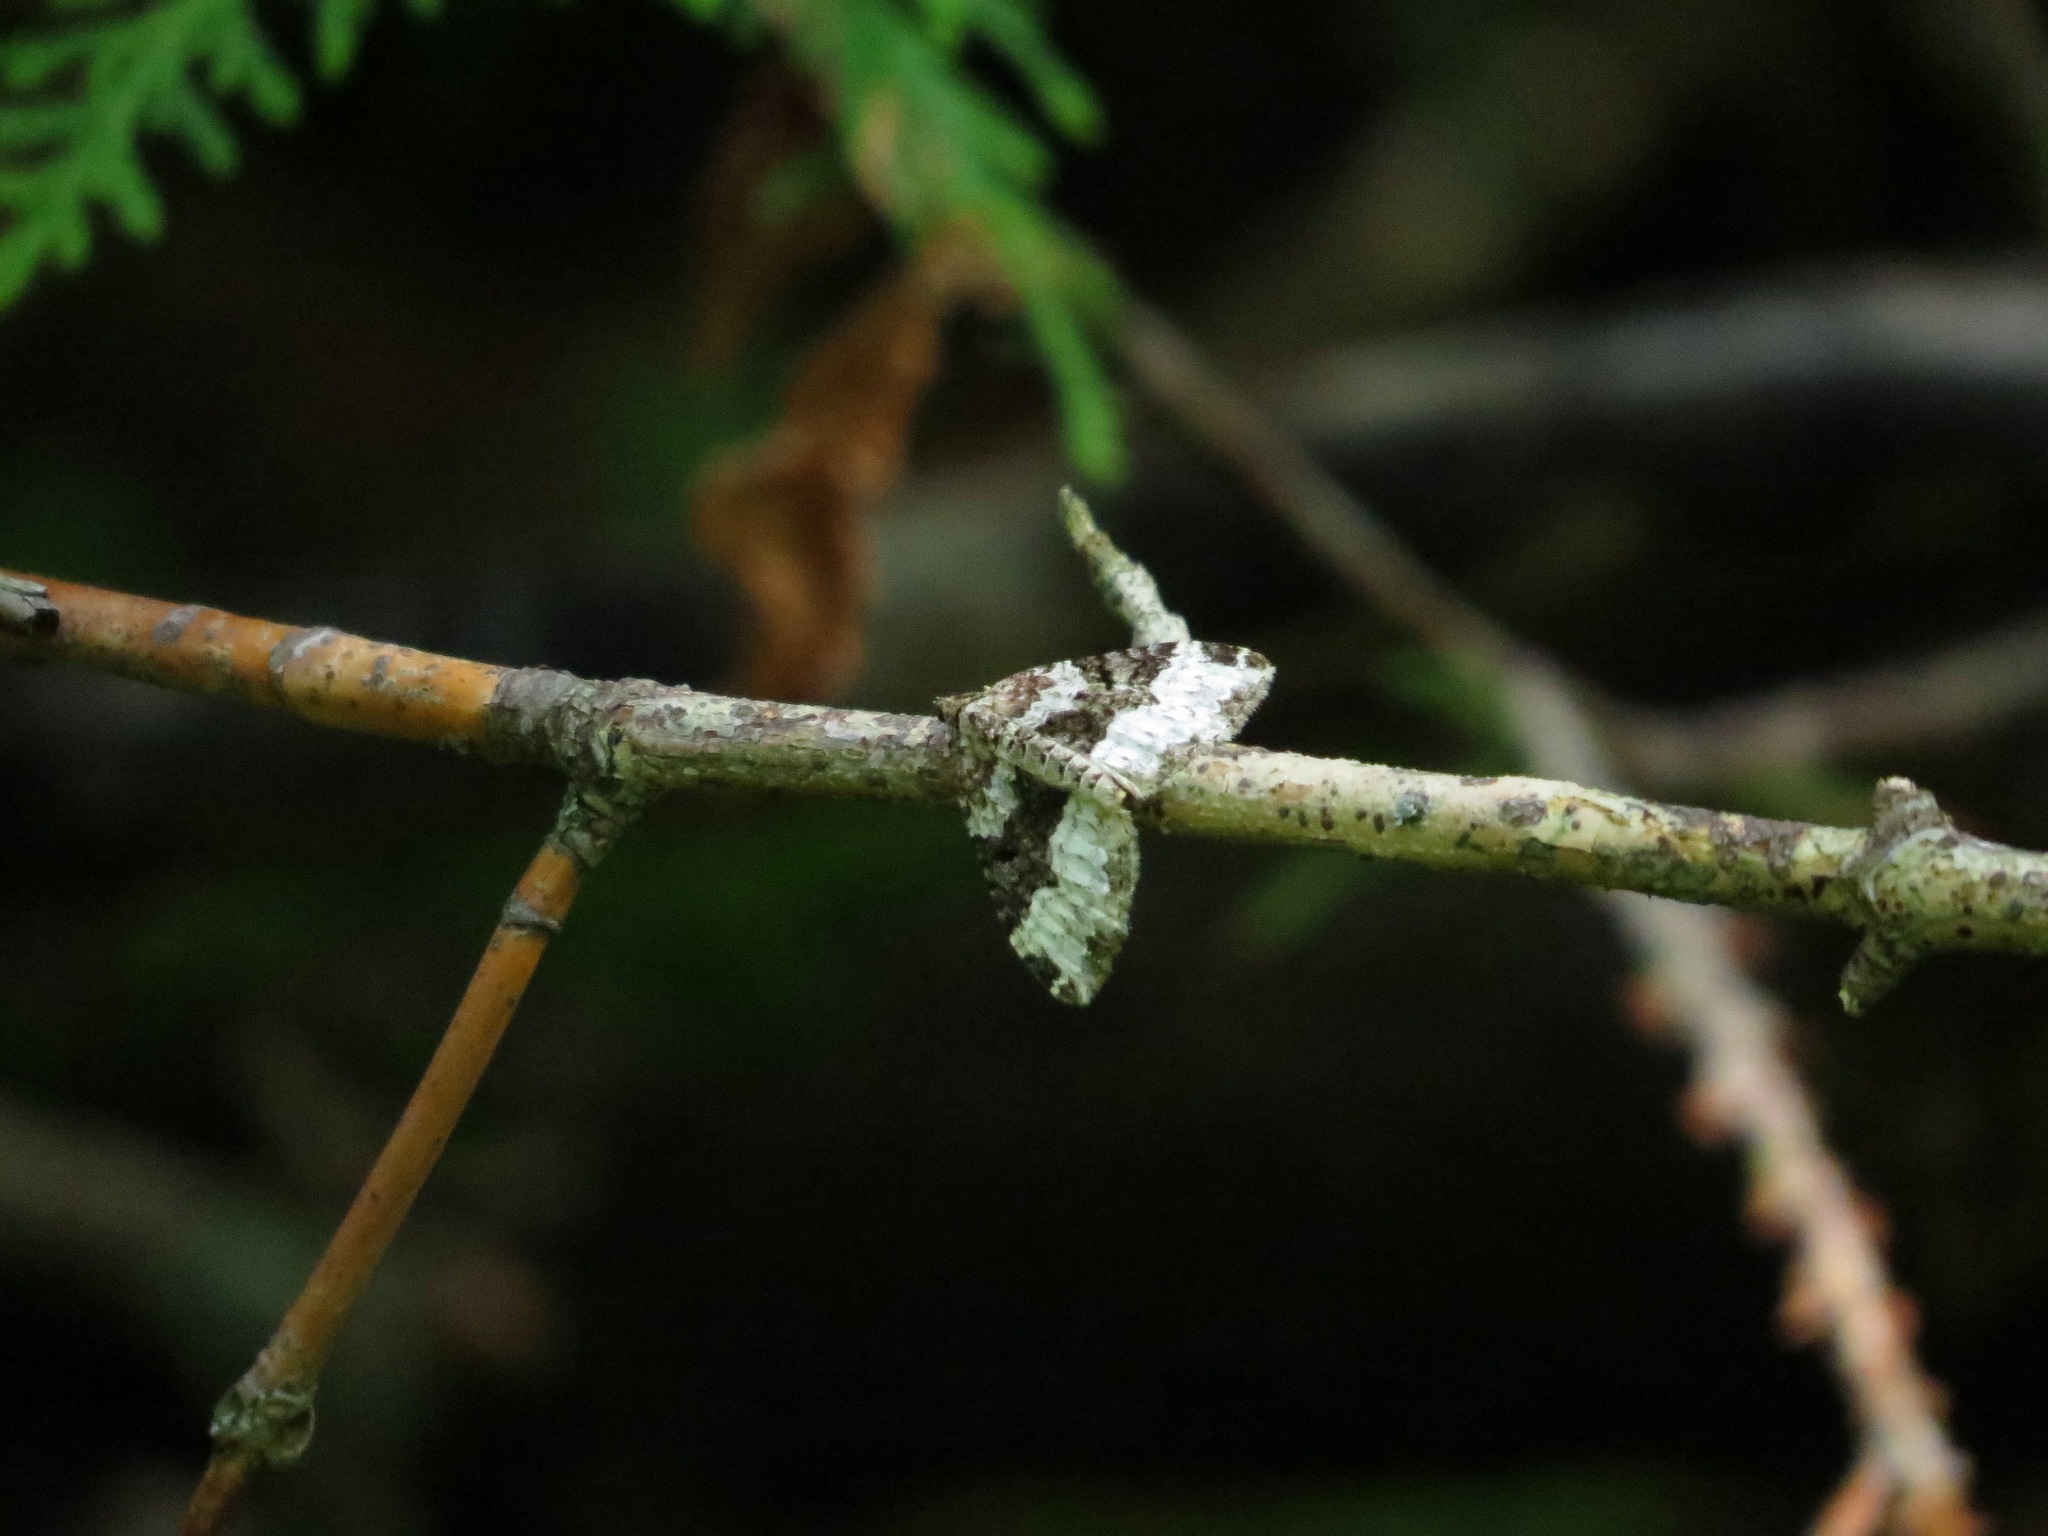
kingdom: Animalia
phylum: Arthropoda
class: Insecta
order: Lepidoptera
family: Geometridae
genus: Epirrhoe
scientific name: Epirrhoe alternata
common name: Common carpet
